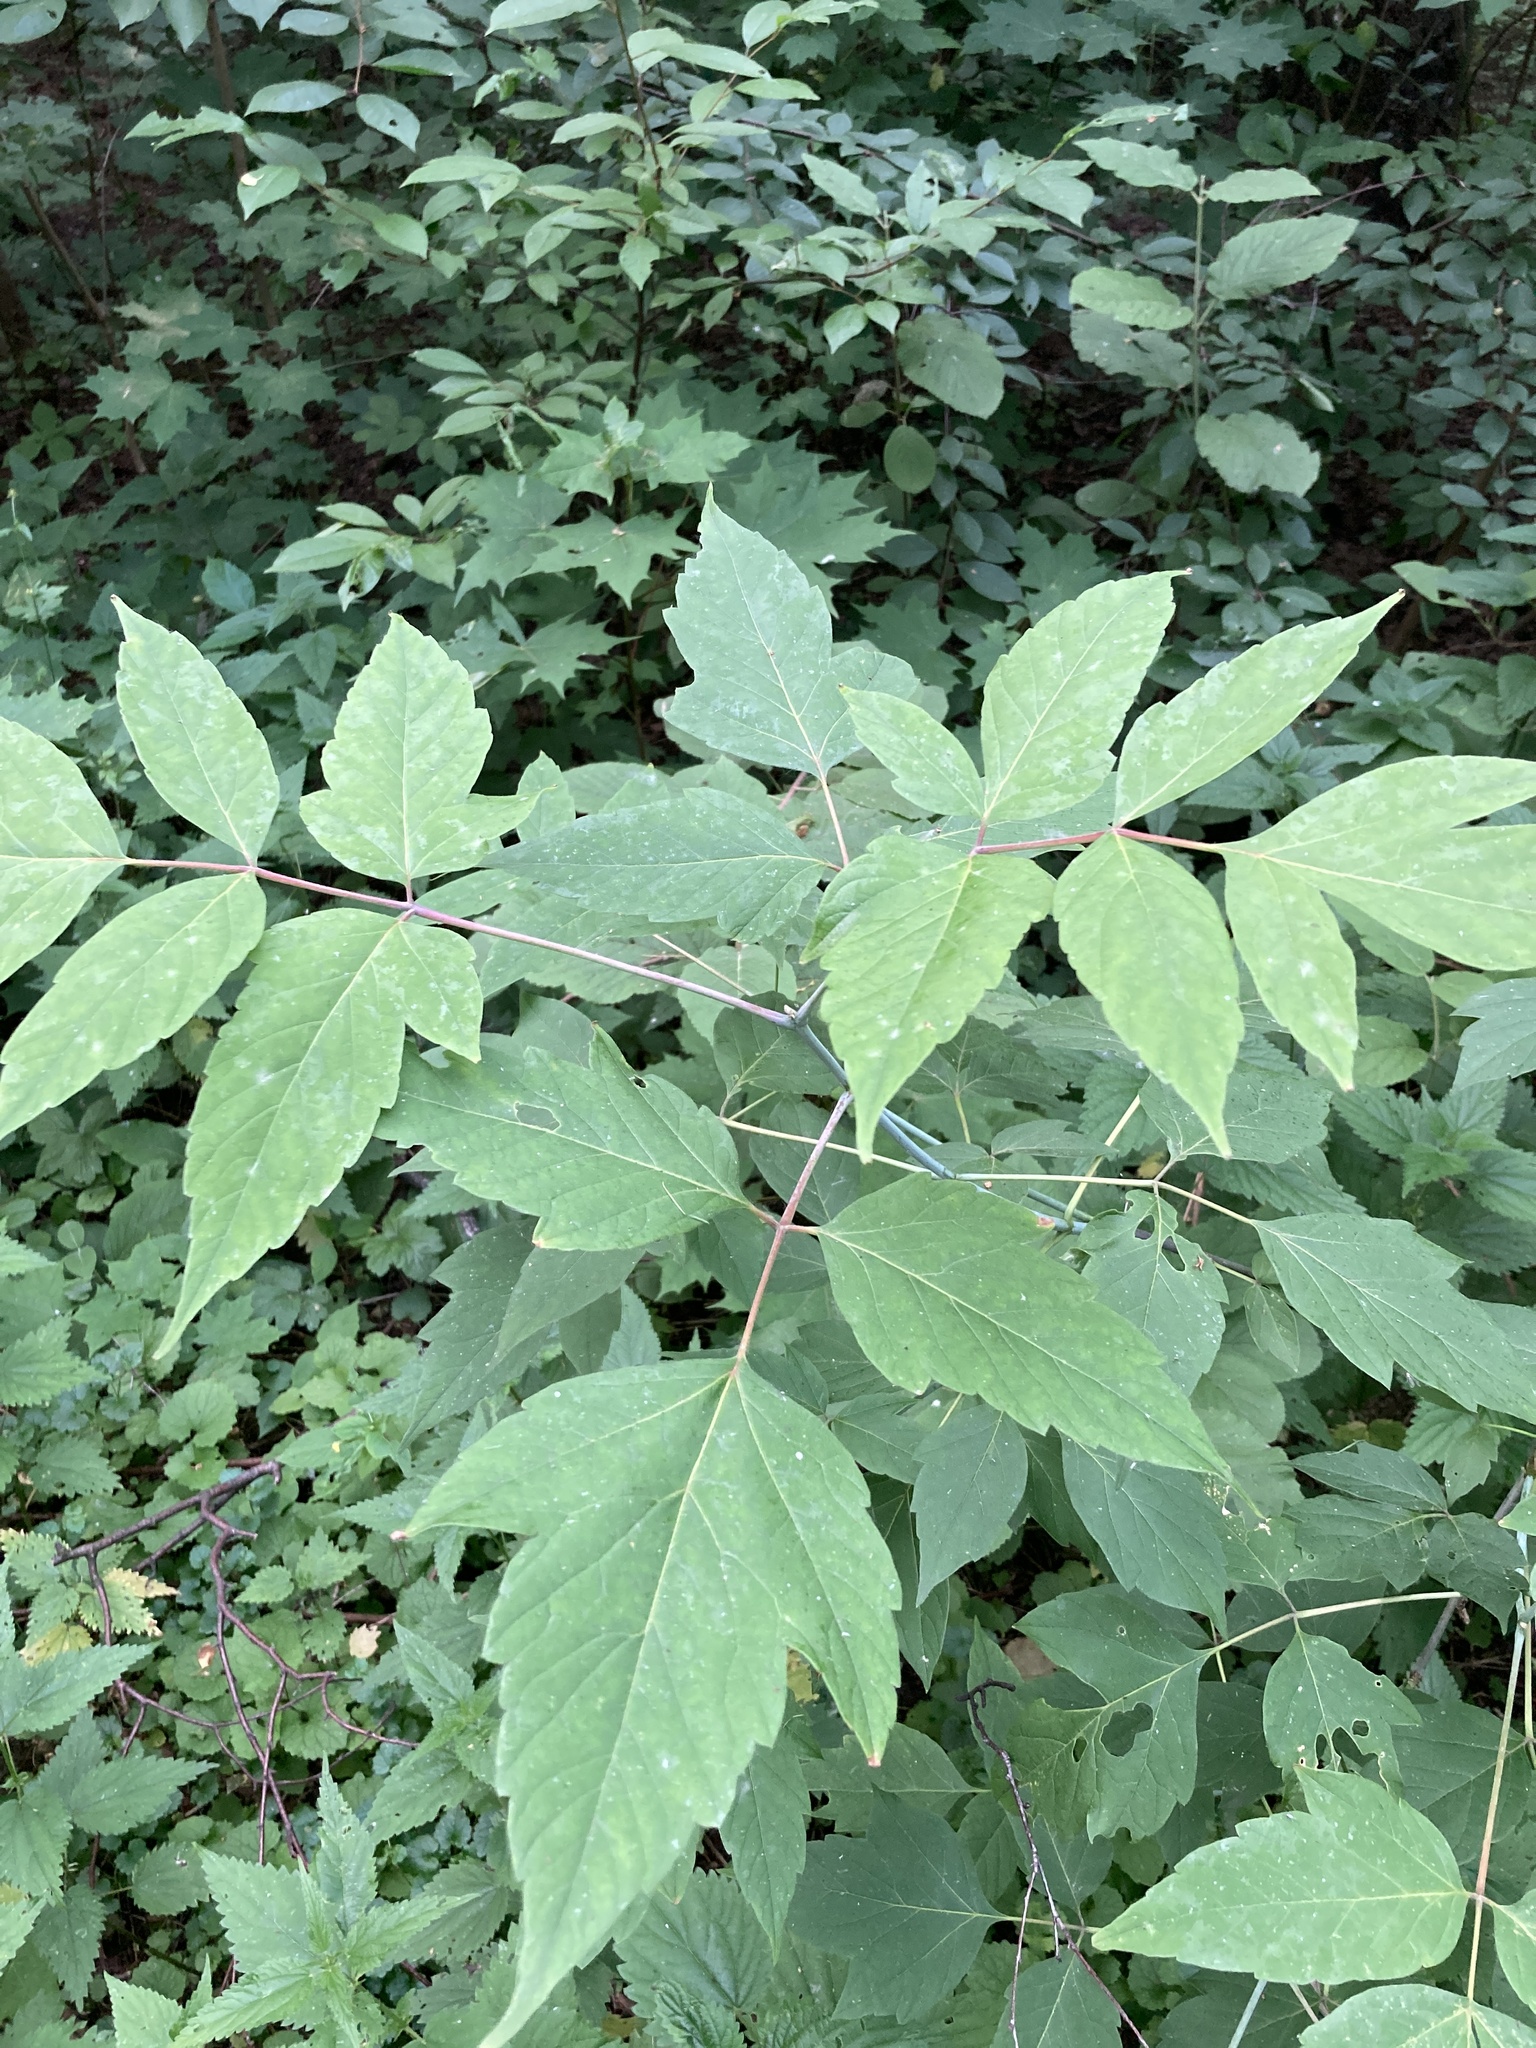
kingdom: Plantae
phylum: Tracheophyta
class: Magnoliopsida
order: Sapindales
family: Sapindaceae
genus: Acer
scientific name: Acer negundo
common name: Ashleaf maple
